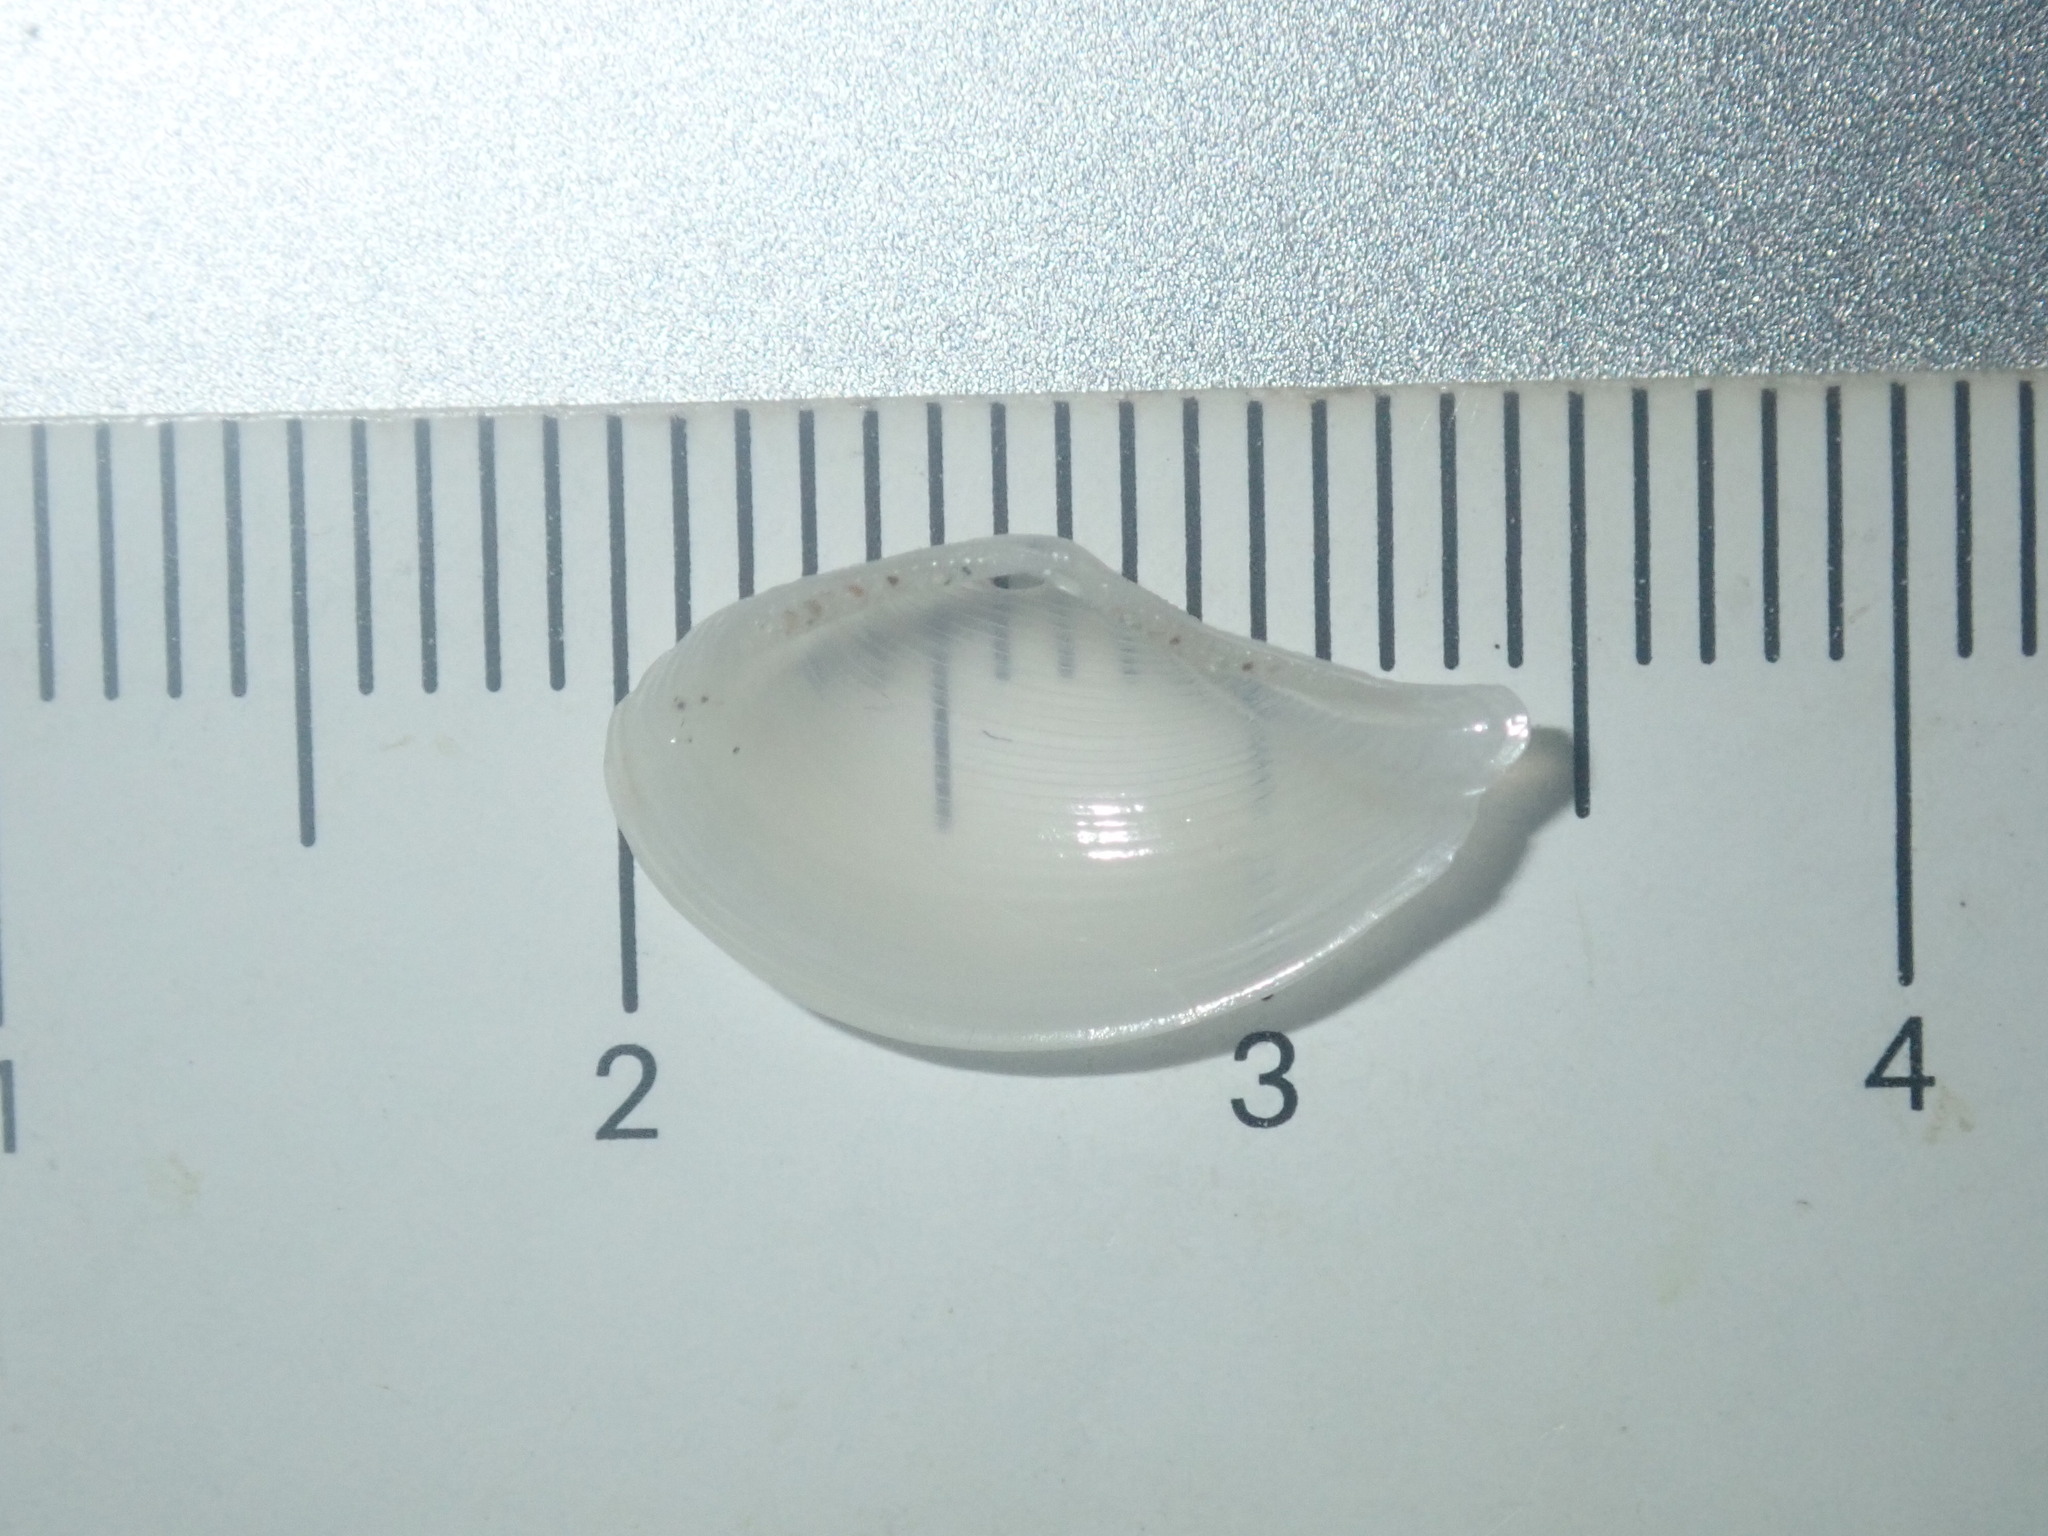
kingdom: Animalia
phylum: Mollusca
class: Bivalvia
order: Nuculanida
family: Nuculanidae
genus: Nuculana
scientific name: Nuculana dohrni
